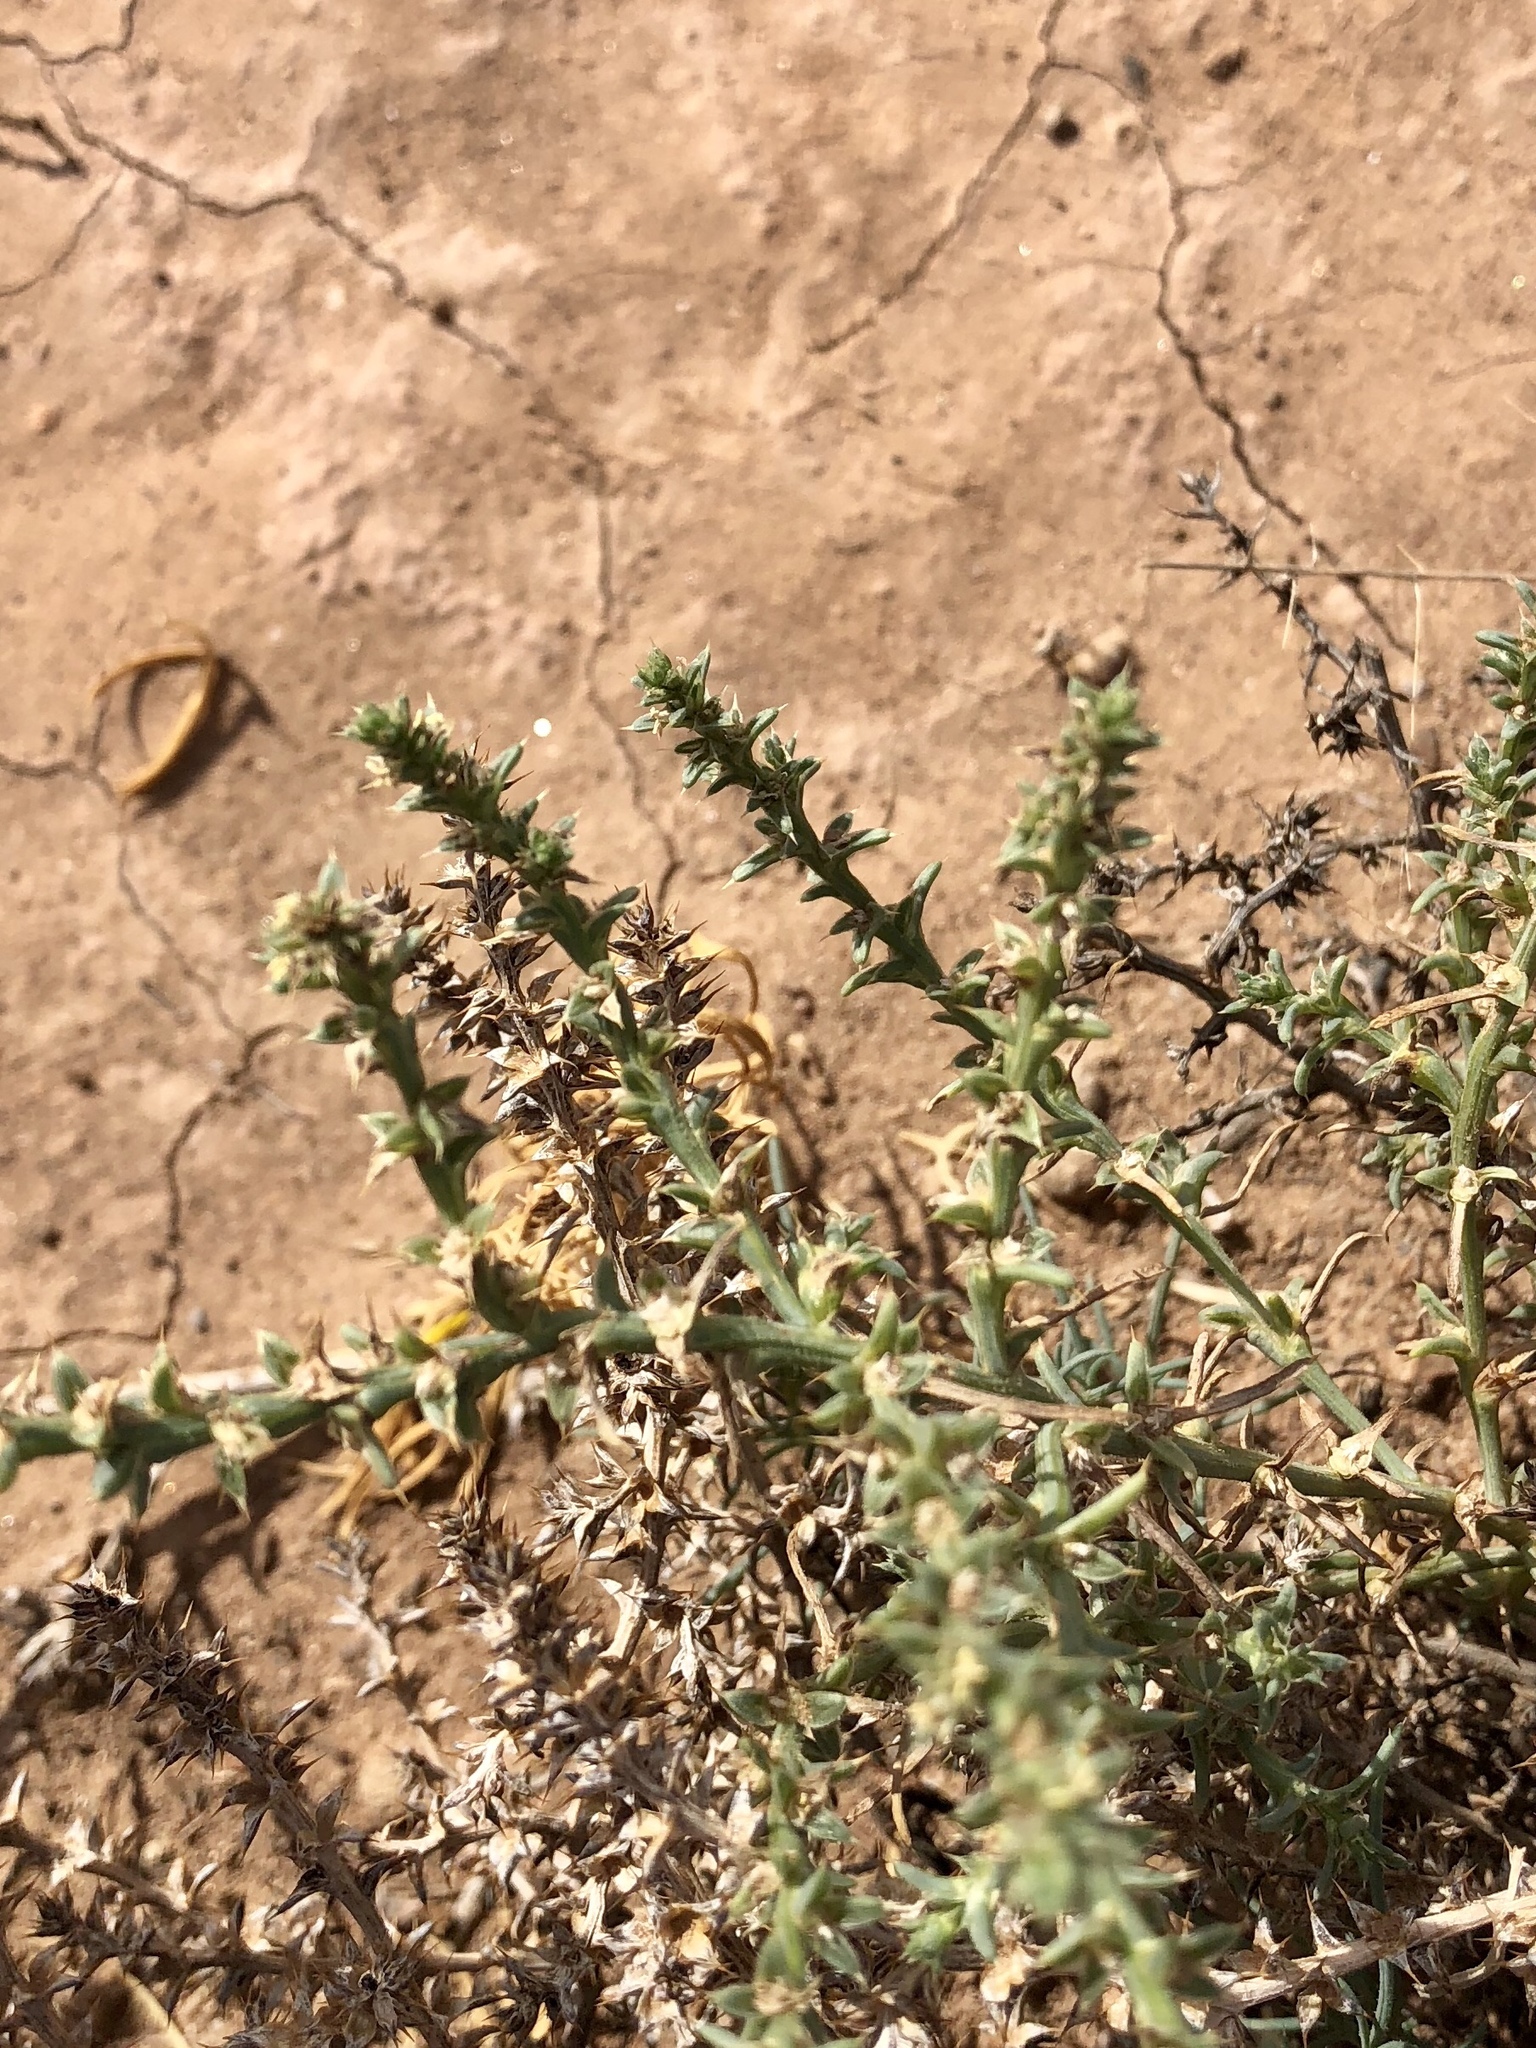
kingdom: Plantae
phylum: Tracheophyta
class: Magnoliopsida
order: Caryophyllales
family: Amaranthaceae
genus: Salsola
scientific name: Salsola tragus
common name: Prickly russian thistle
